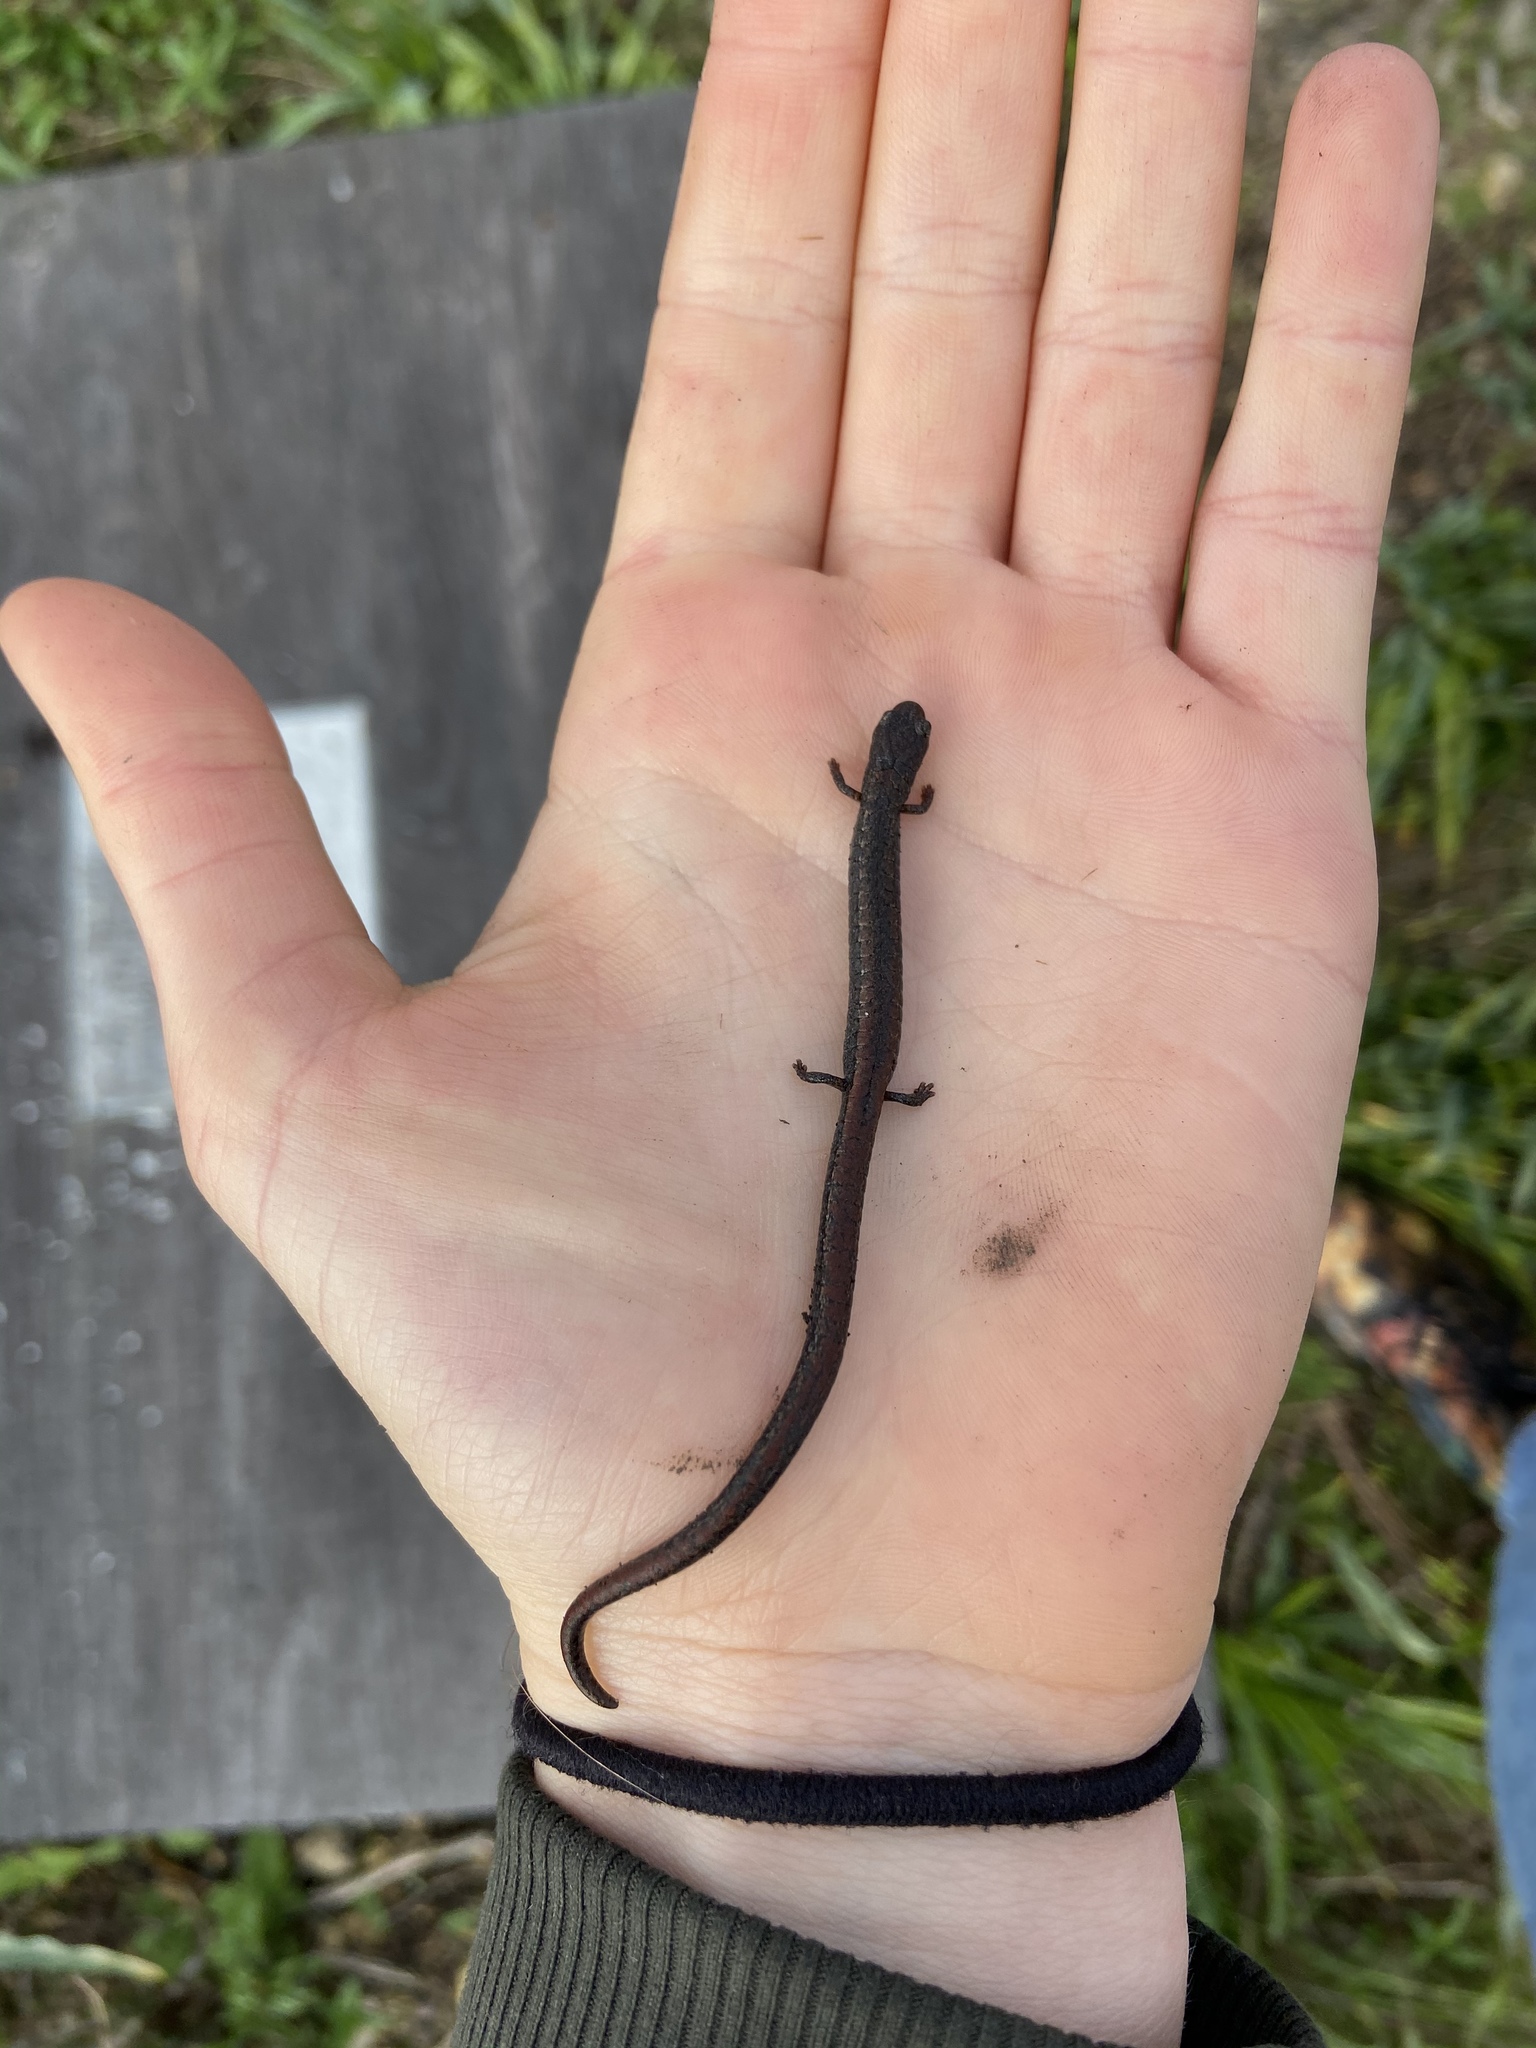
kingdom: Animalia
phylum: Chordata
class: Amphibia
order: Caudata
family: Plethodontidae
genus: Batrachoseps
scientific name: Batrachoseps attenuatus
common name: California slender salamander
